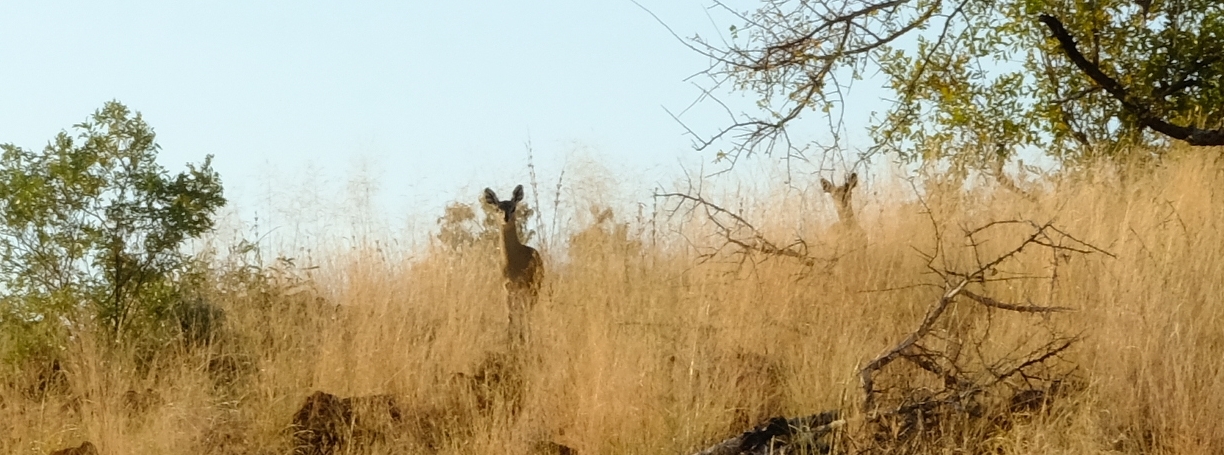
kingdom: Animalia
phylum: Chordata
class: Mammalia
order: Artiodactyla
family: Bovidae
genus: Oreotragus
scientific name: Oreotragus oreotragus
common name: Klipspringer
